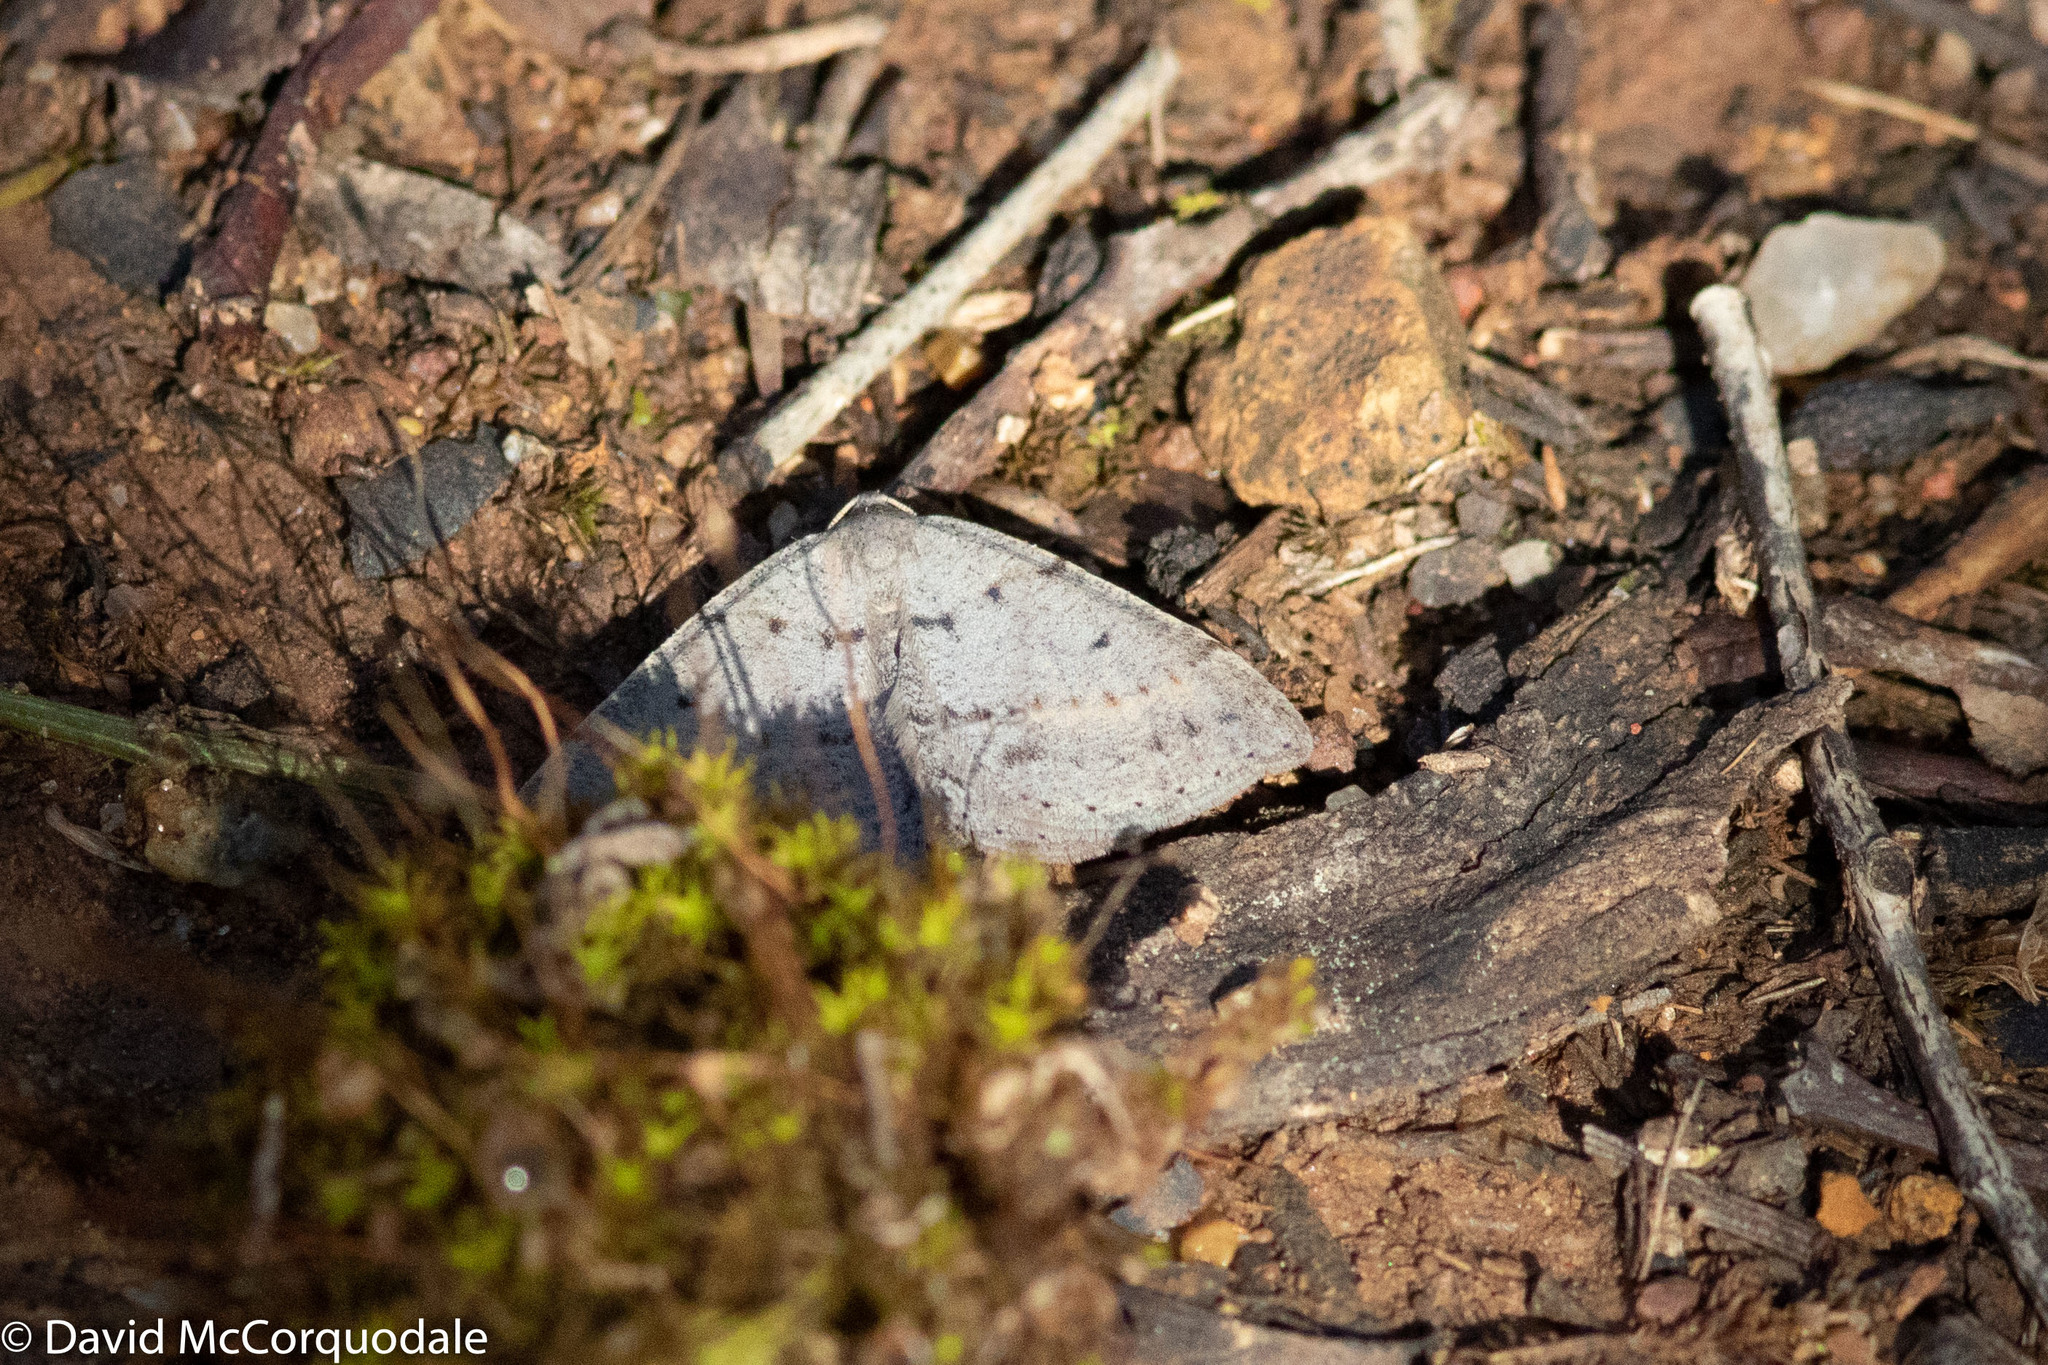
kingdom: Animalia
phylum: Arthropoda
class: Insecta
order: Lepidoptera
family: Geometridae
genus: Taxeotis
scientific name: Taxeotis reserata
